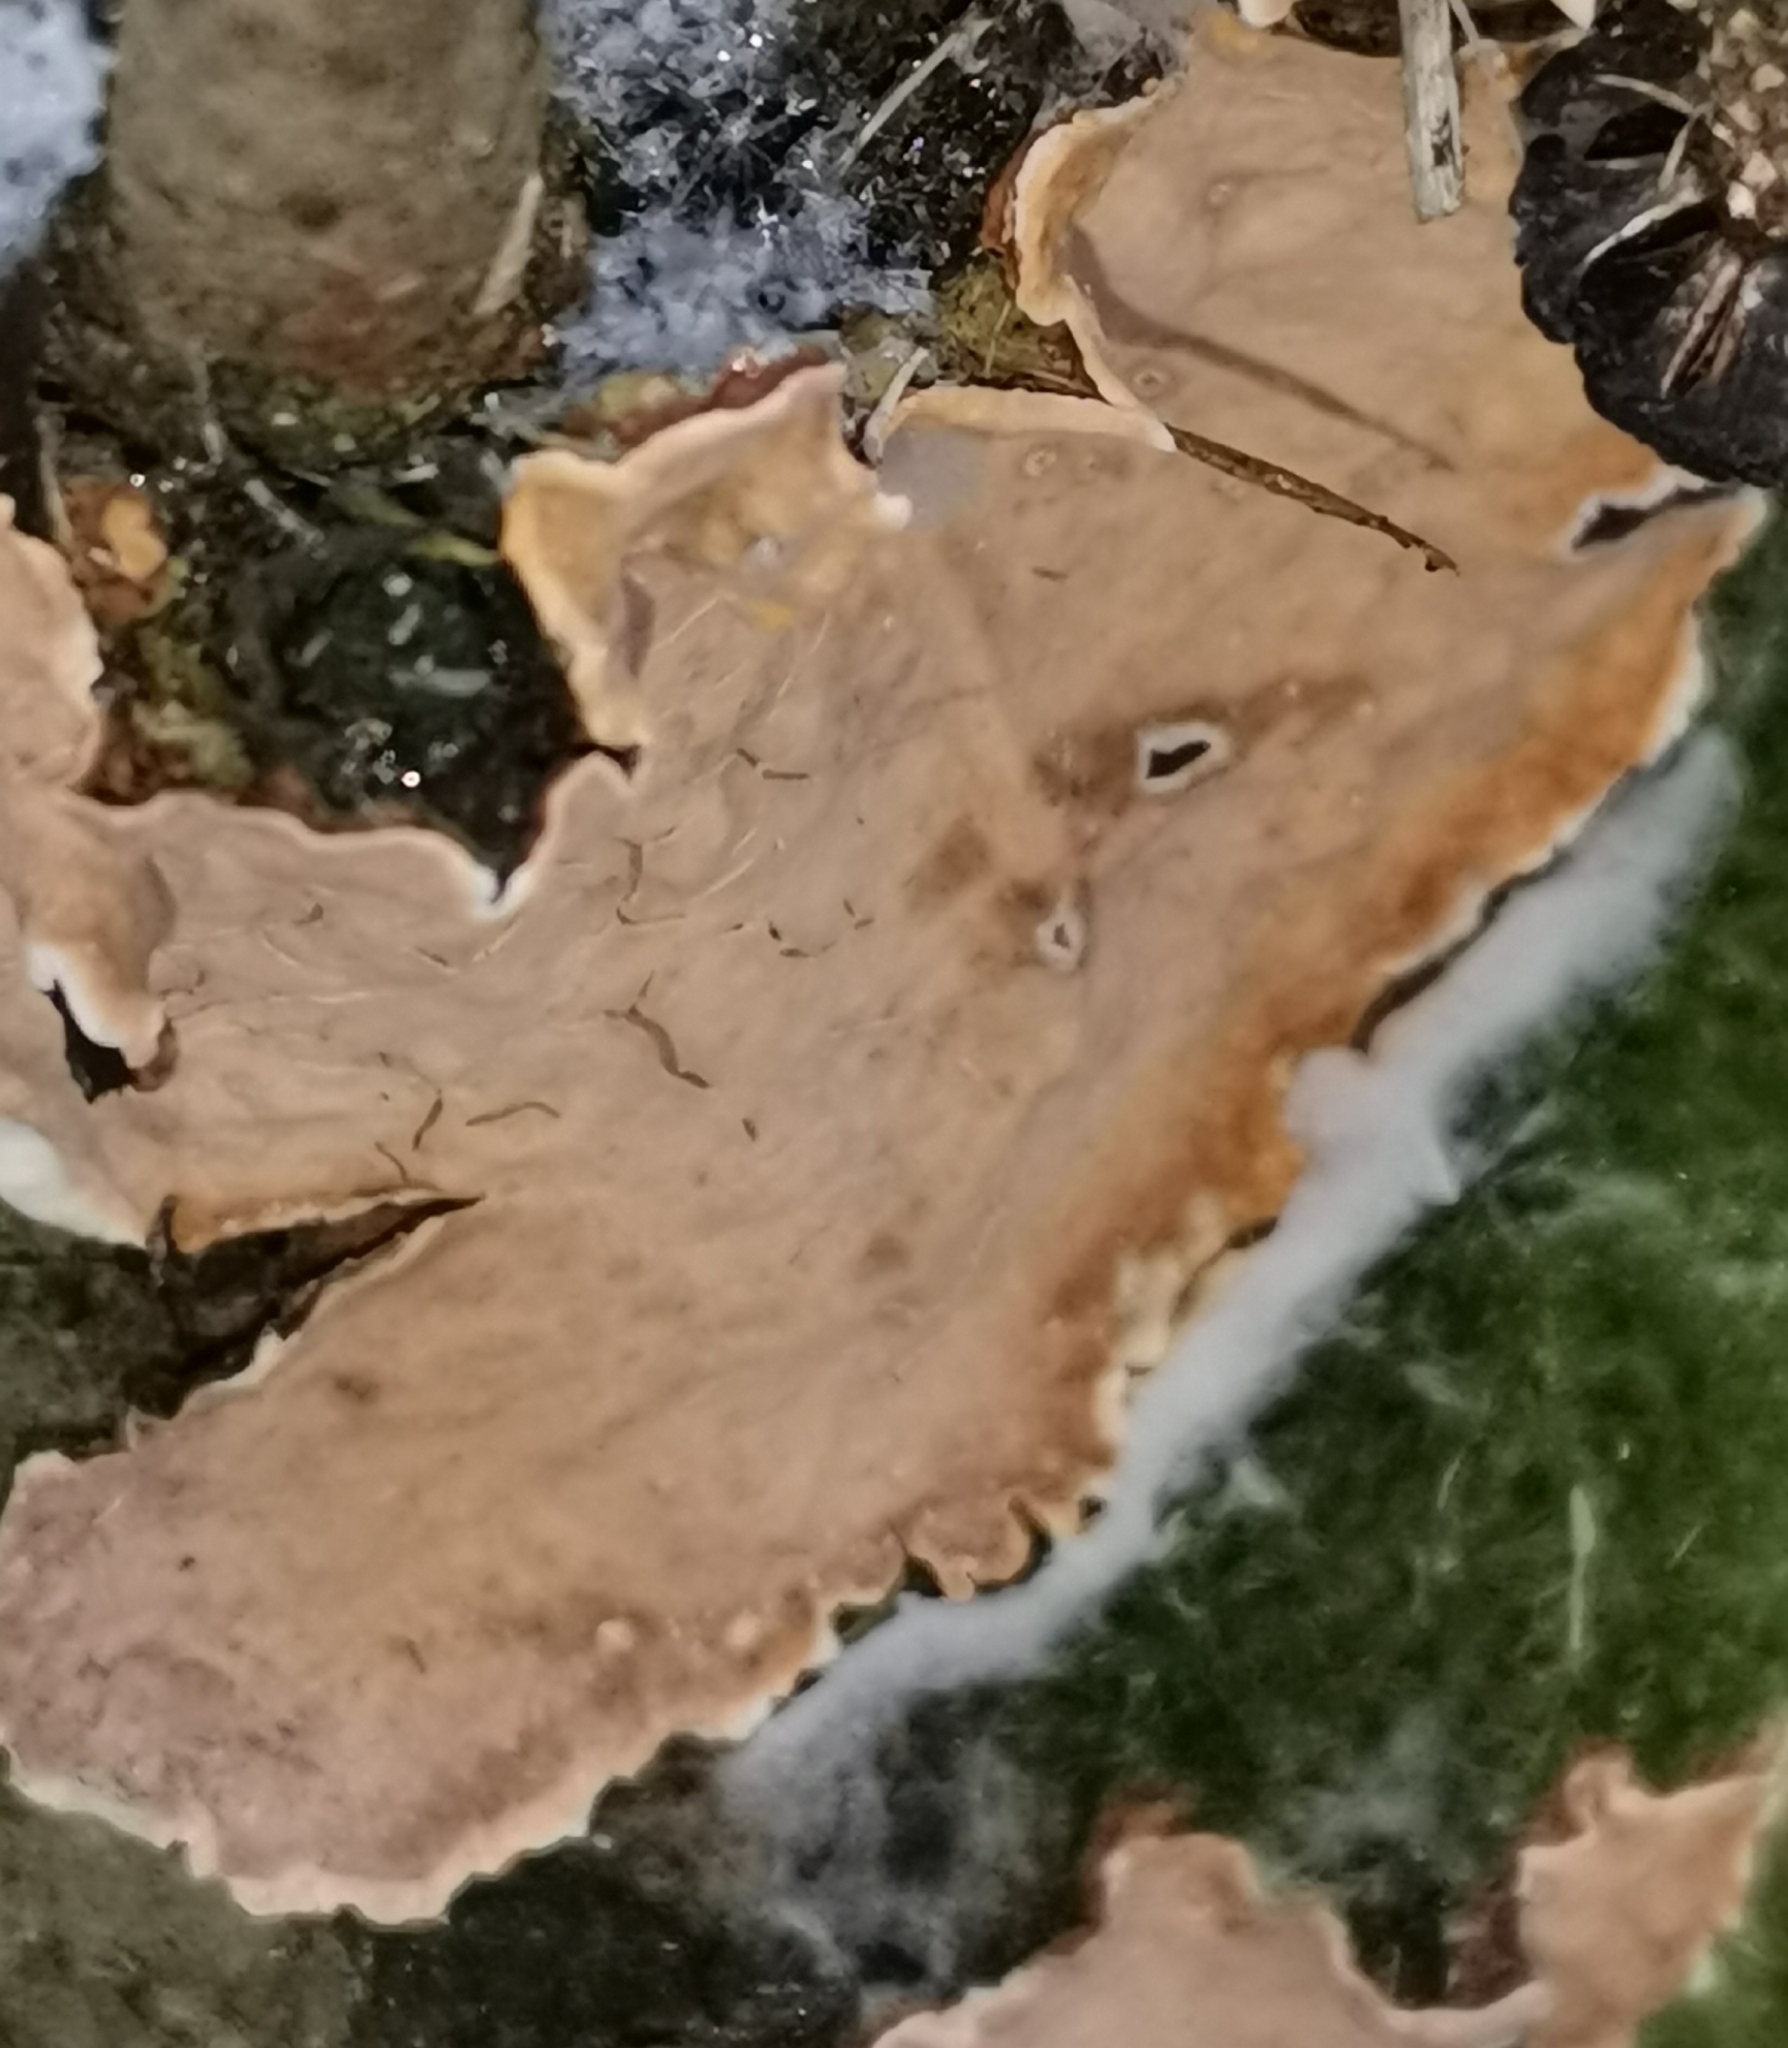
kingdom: Fungi
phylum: Basidiomycota
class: Agaricomycetes
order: Russulales
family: Stereaceae
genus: Stereum
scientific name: Stereum rugosum
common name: Bleeding broadleaf crust
